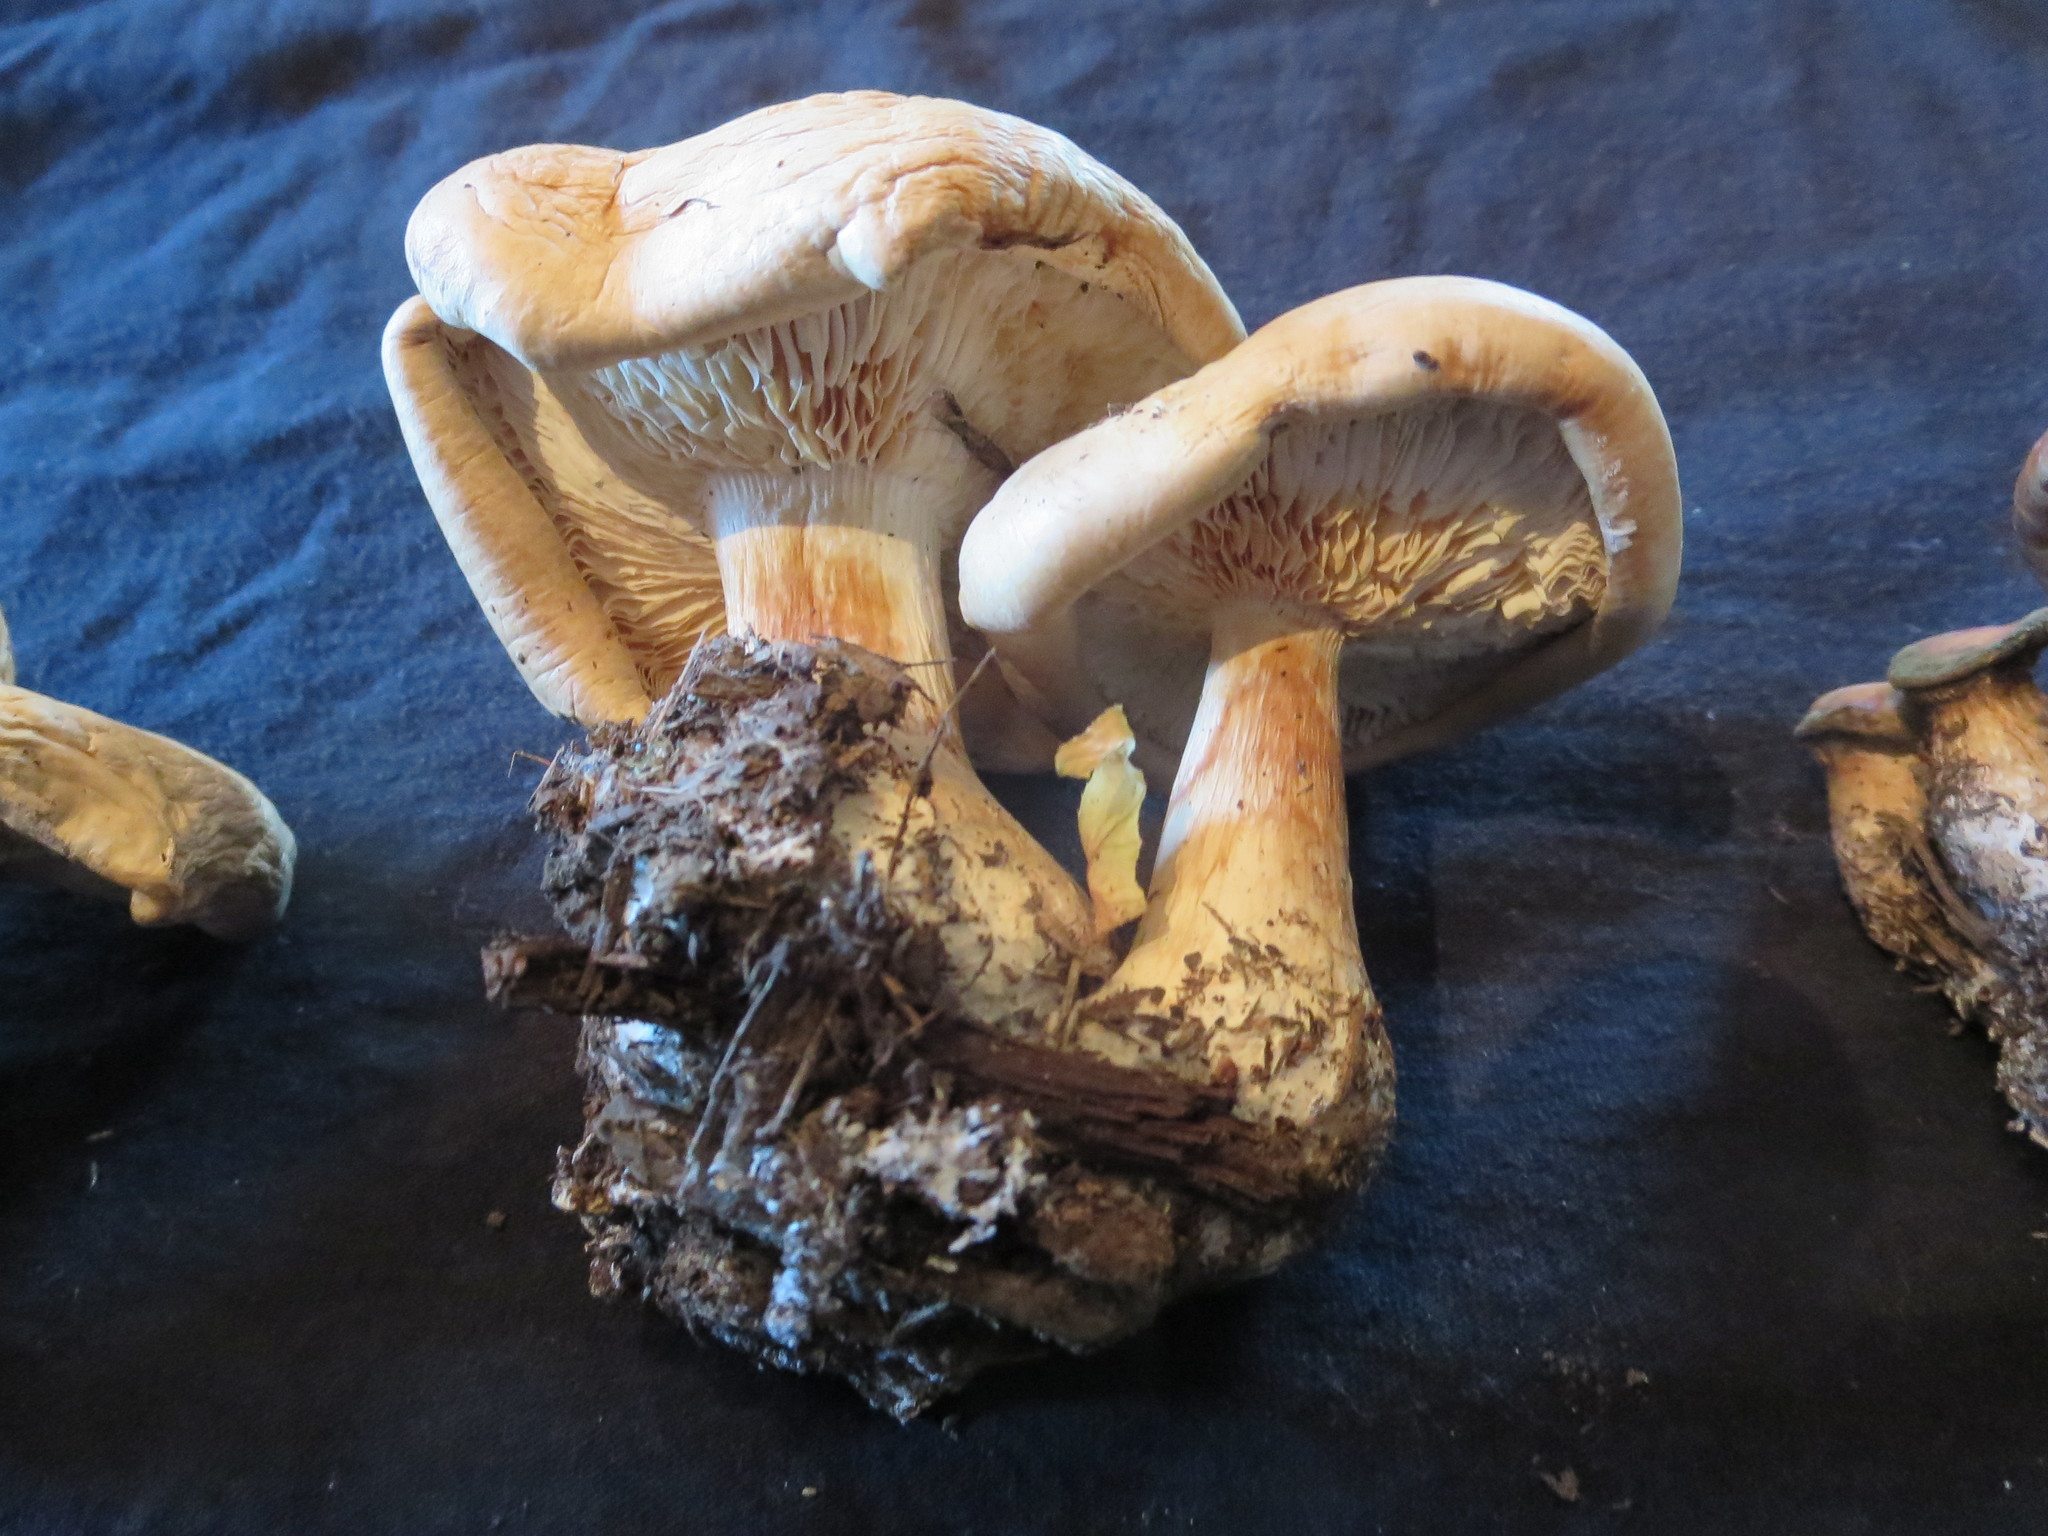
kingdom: Fungi
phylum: Basidiomycota
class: Agaricomycetes
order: Agaricales
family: Tricholomataceae
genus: Leucopaxillus
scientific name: Leucopaxillus albissimus
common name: Large white leucopax
